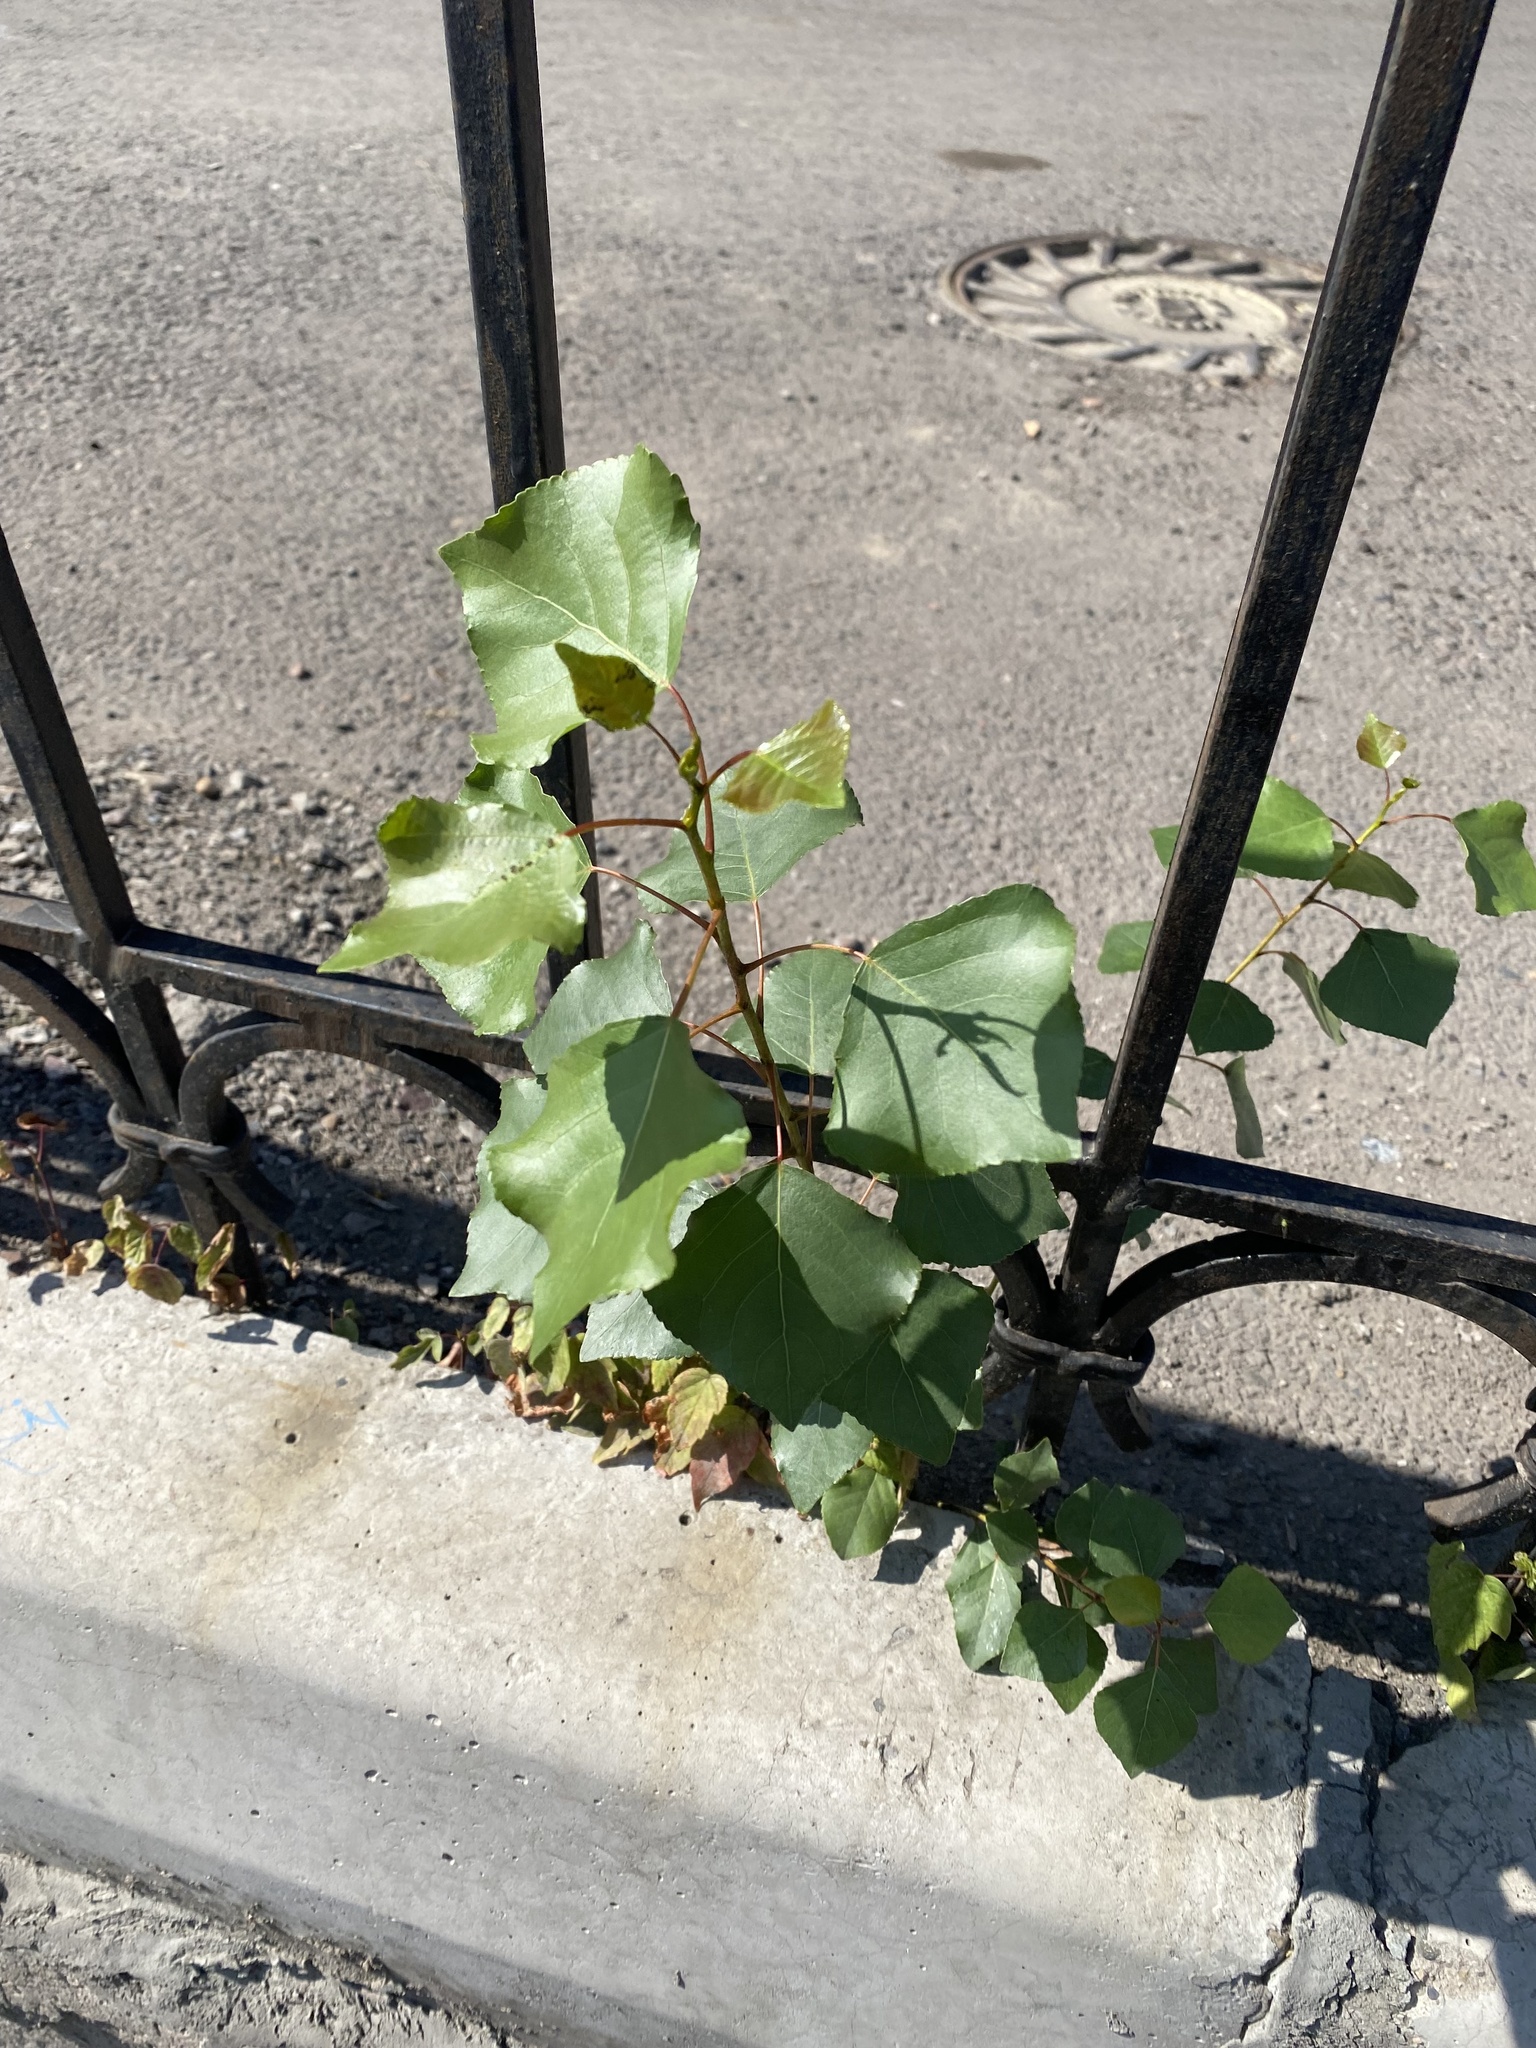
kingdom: Plantae
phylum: Tracheophyta
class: Magnoliopsida
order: Malpighiales
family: Salicaceae
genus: Populus
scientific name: Populus nigra
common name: Black poplar
